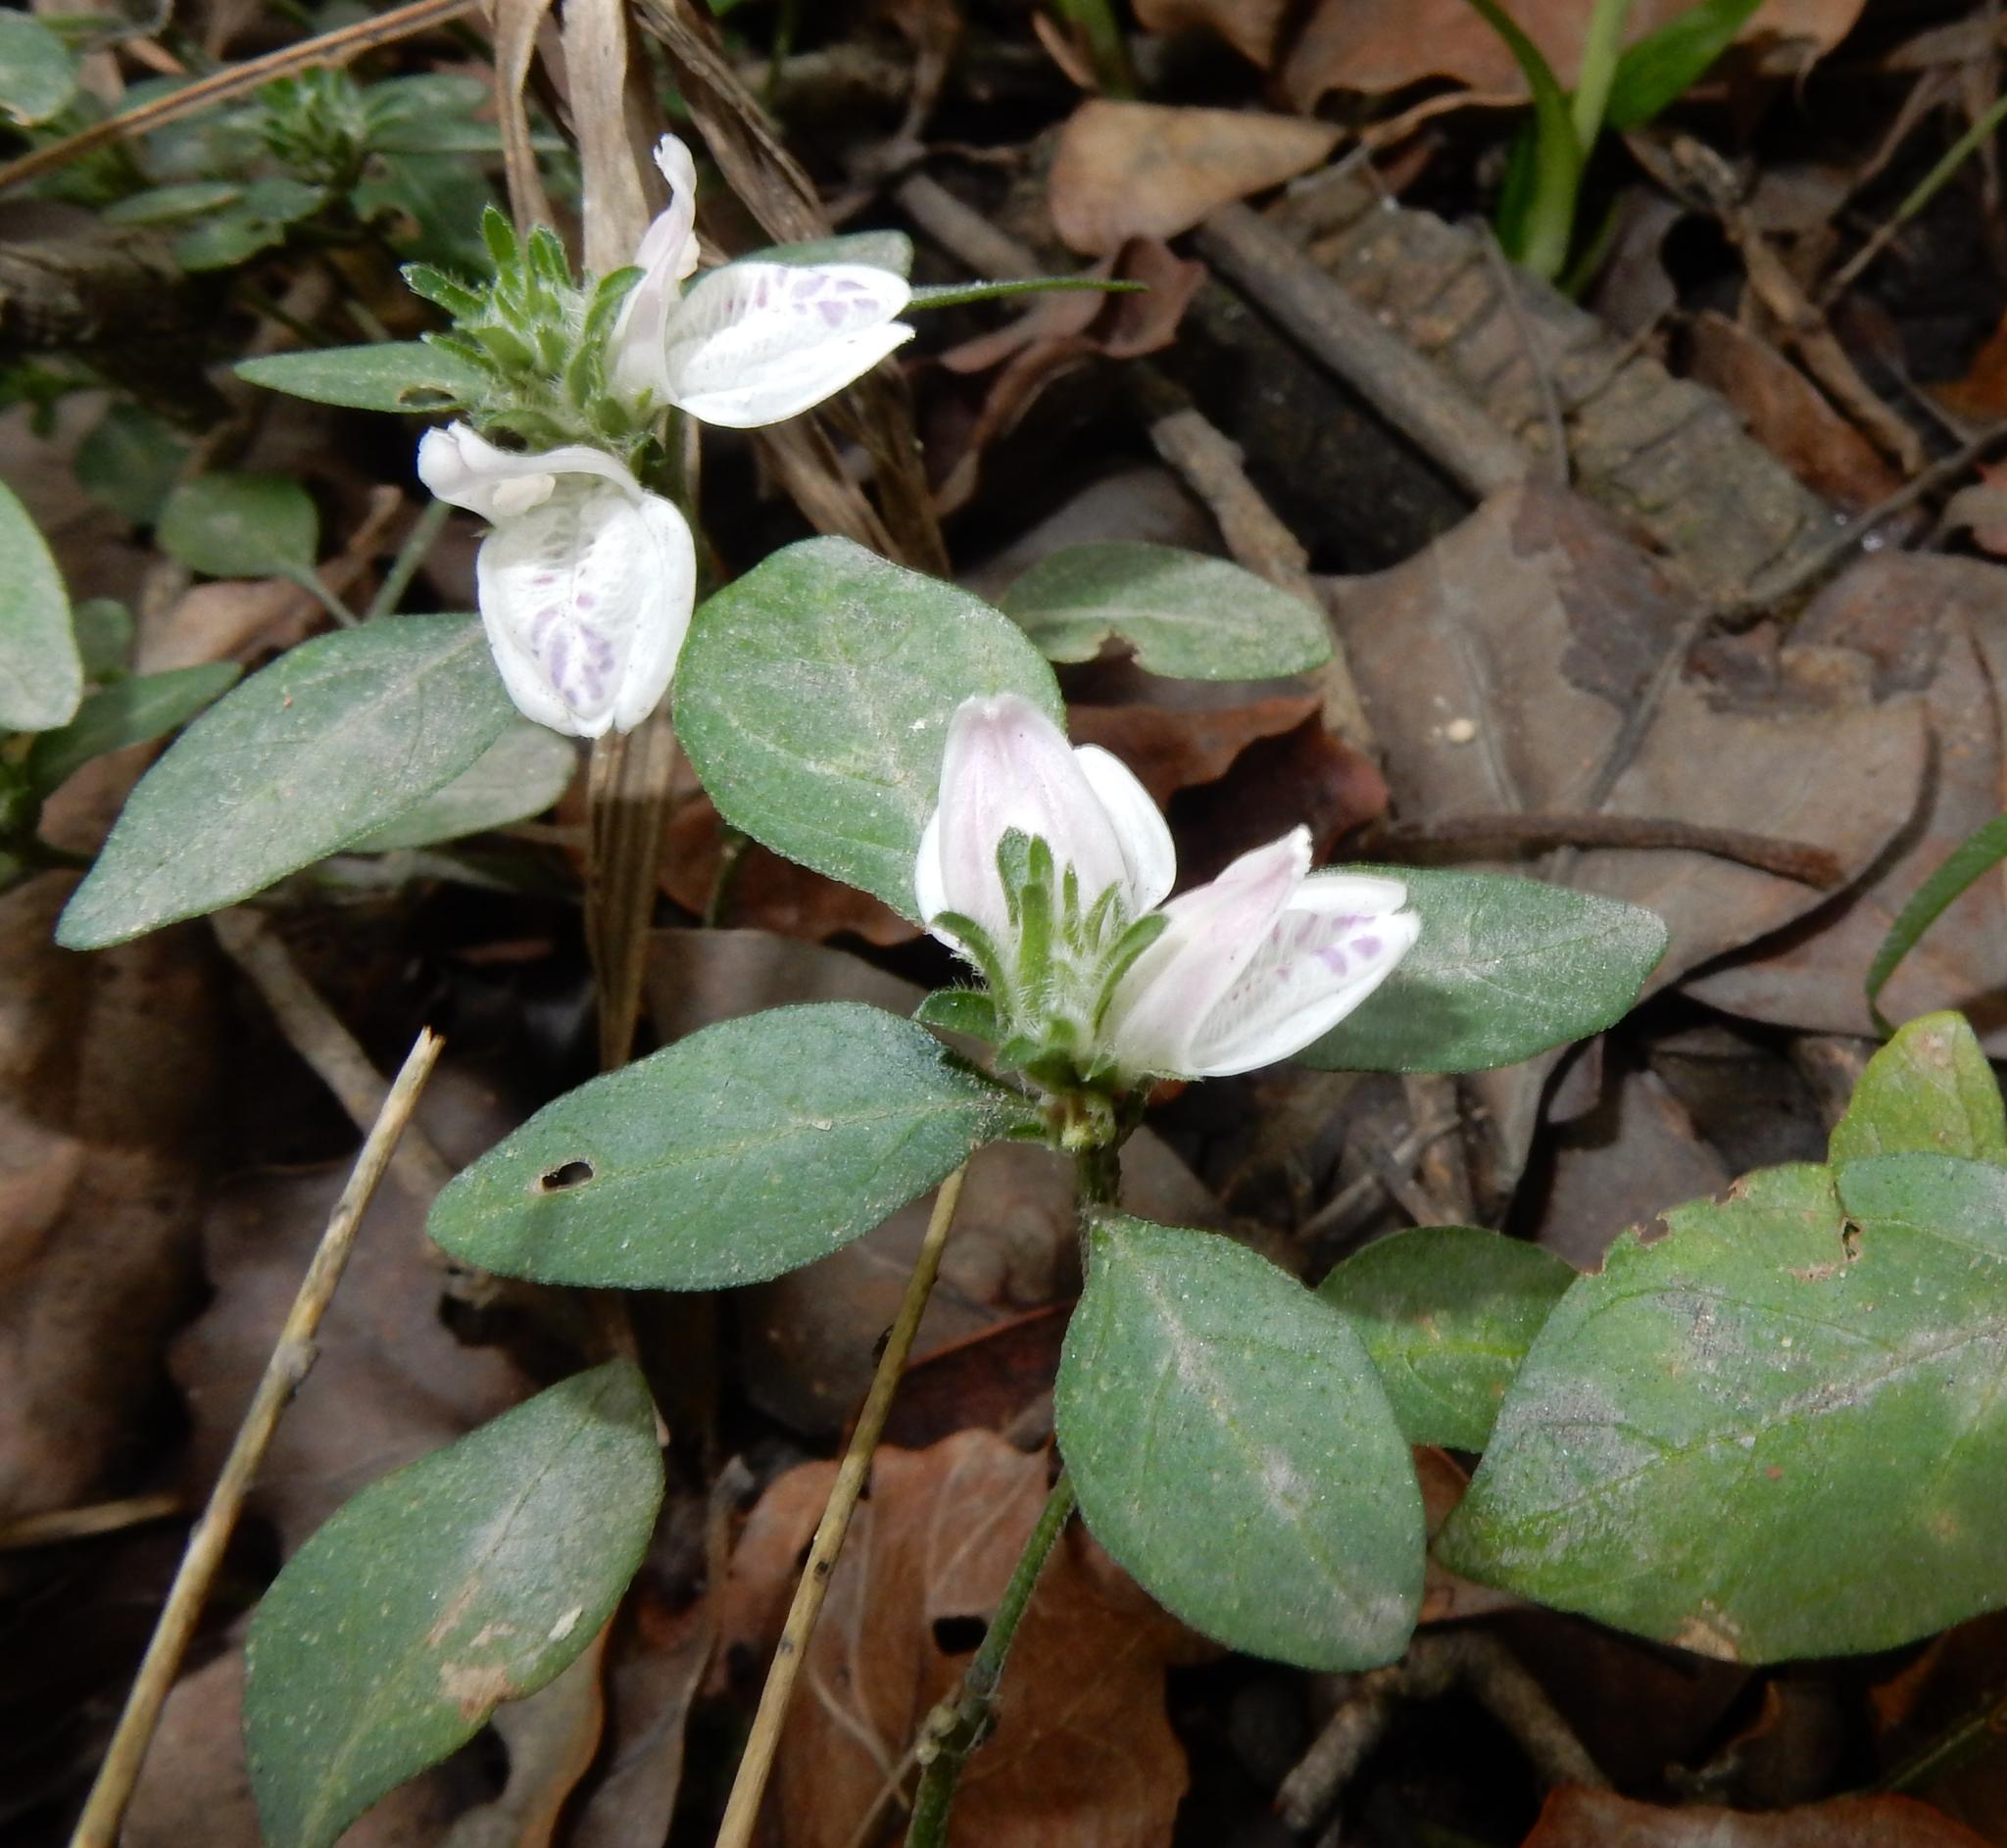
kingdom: Plantae
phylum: Tracheophyta
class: Magnoliopsida
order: Lamiales
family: Acanthaceae
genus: Isoglossa
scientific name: Isoglossa ciliata
